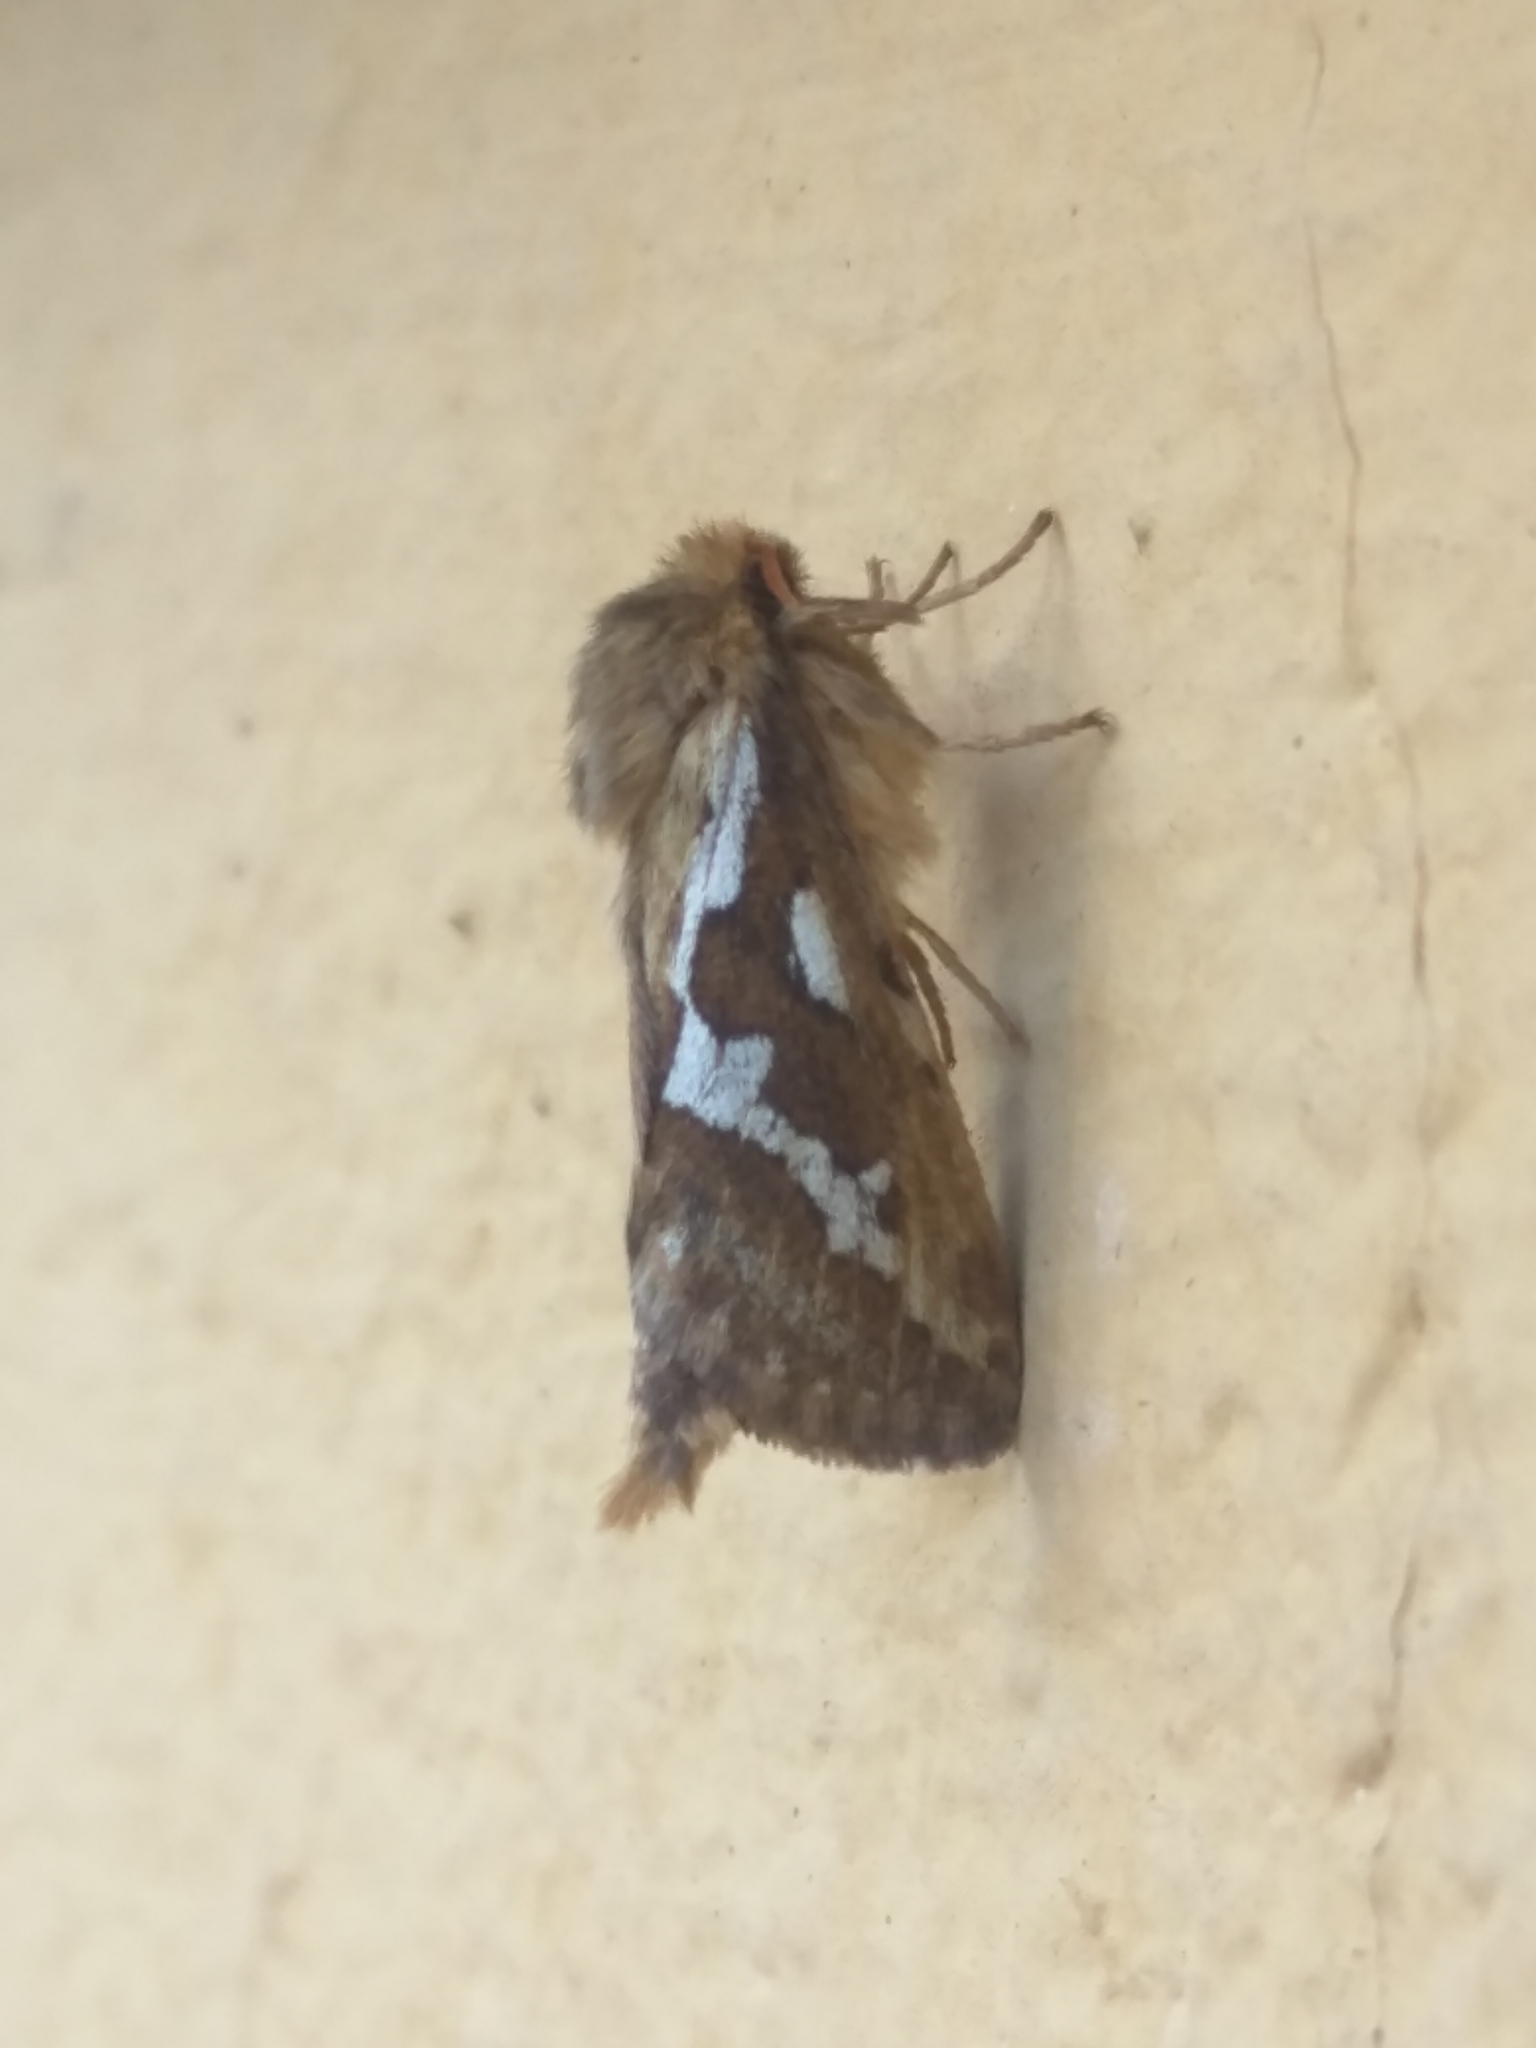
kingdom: Animalia
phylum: Arthropoda
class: Insecta
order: Lepidoptera
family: Hepialidae
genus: Korscheltellus
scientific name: Korscheltellus lupulina
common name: Common swift
